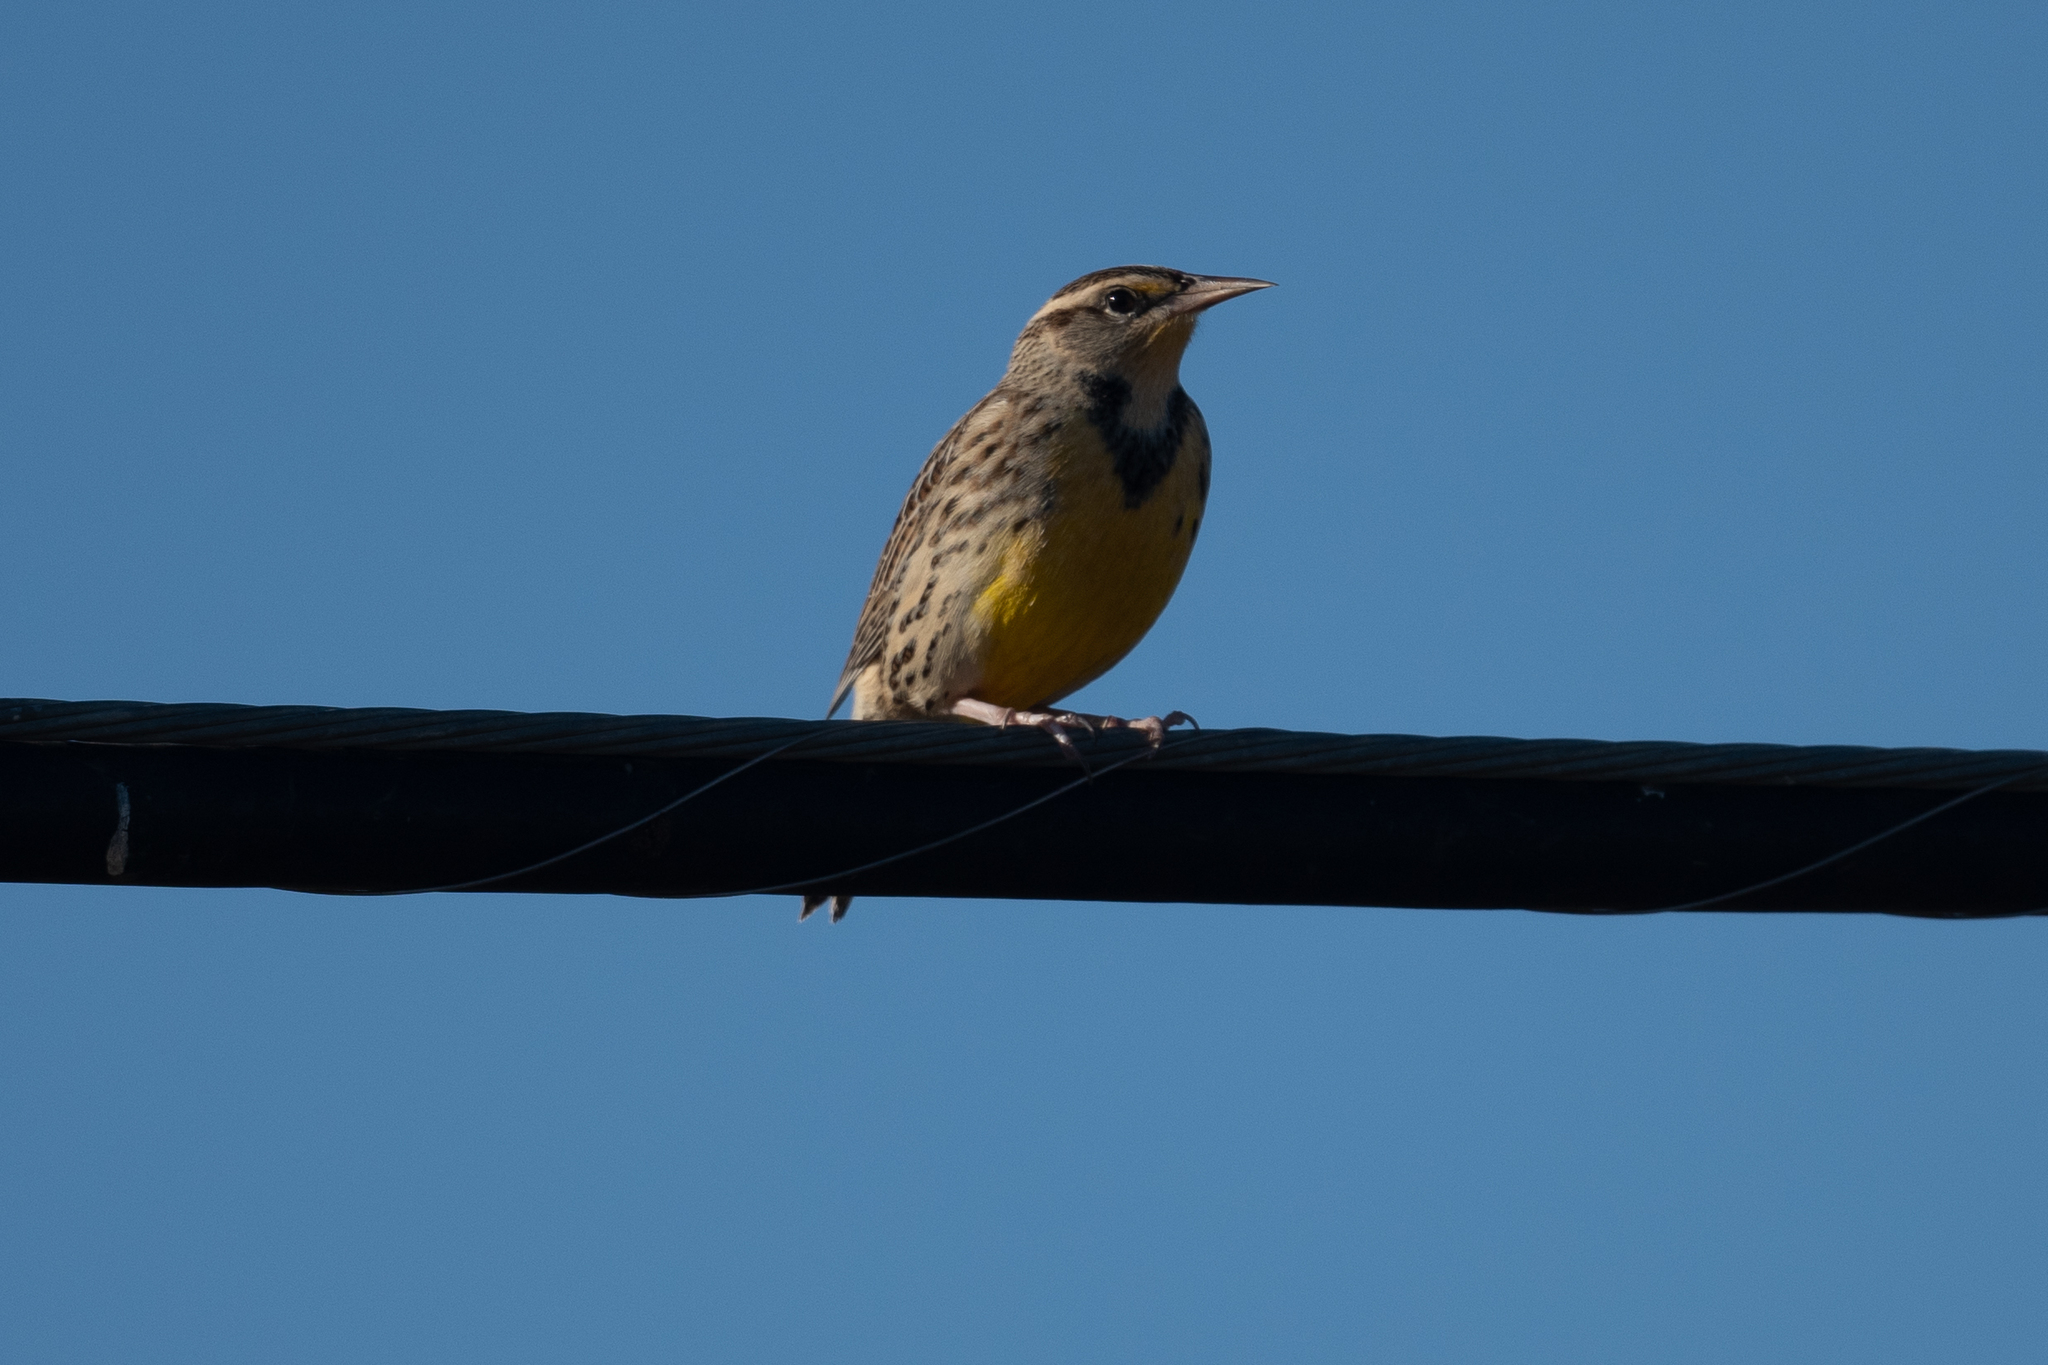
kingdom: Animalia
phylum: Chordata
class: Aves
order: Passeriformes
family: Icteridae
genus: Sturnella
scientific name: Sturnella neglecta
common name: Western meadowlark
